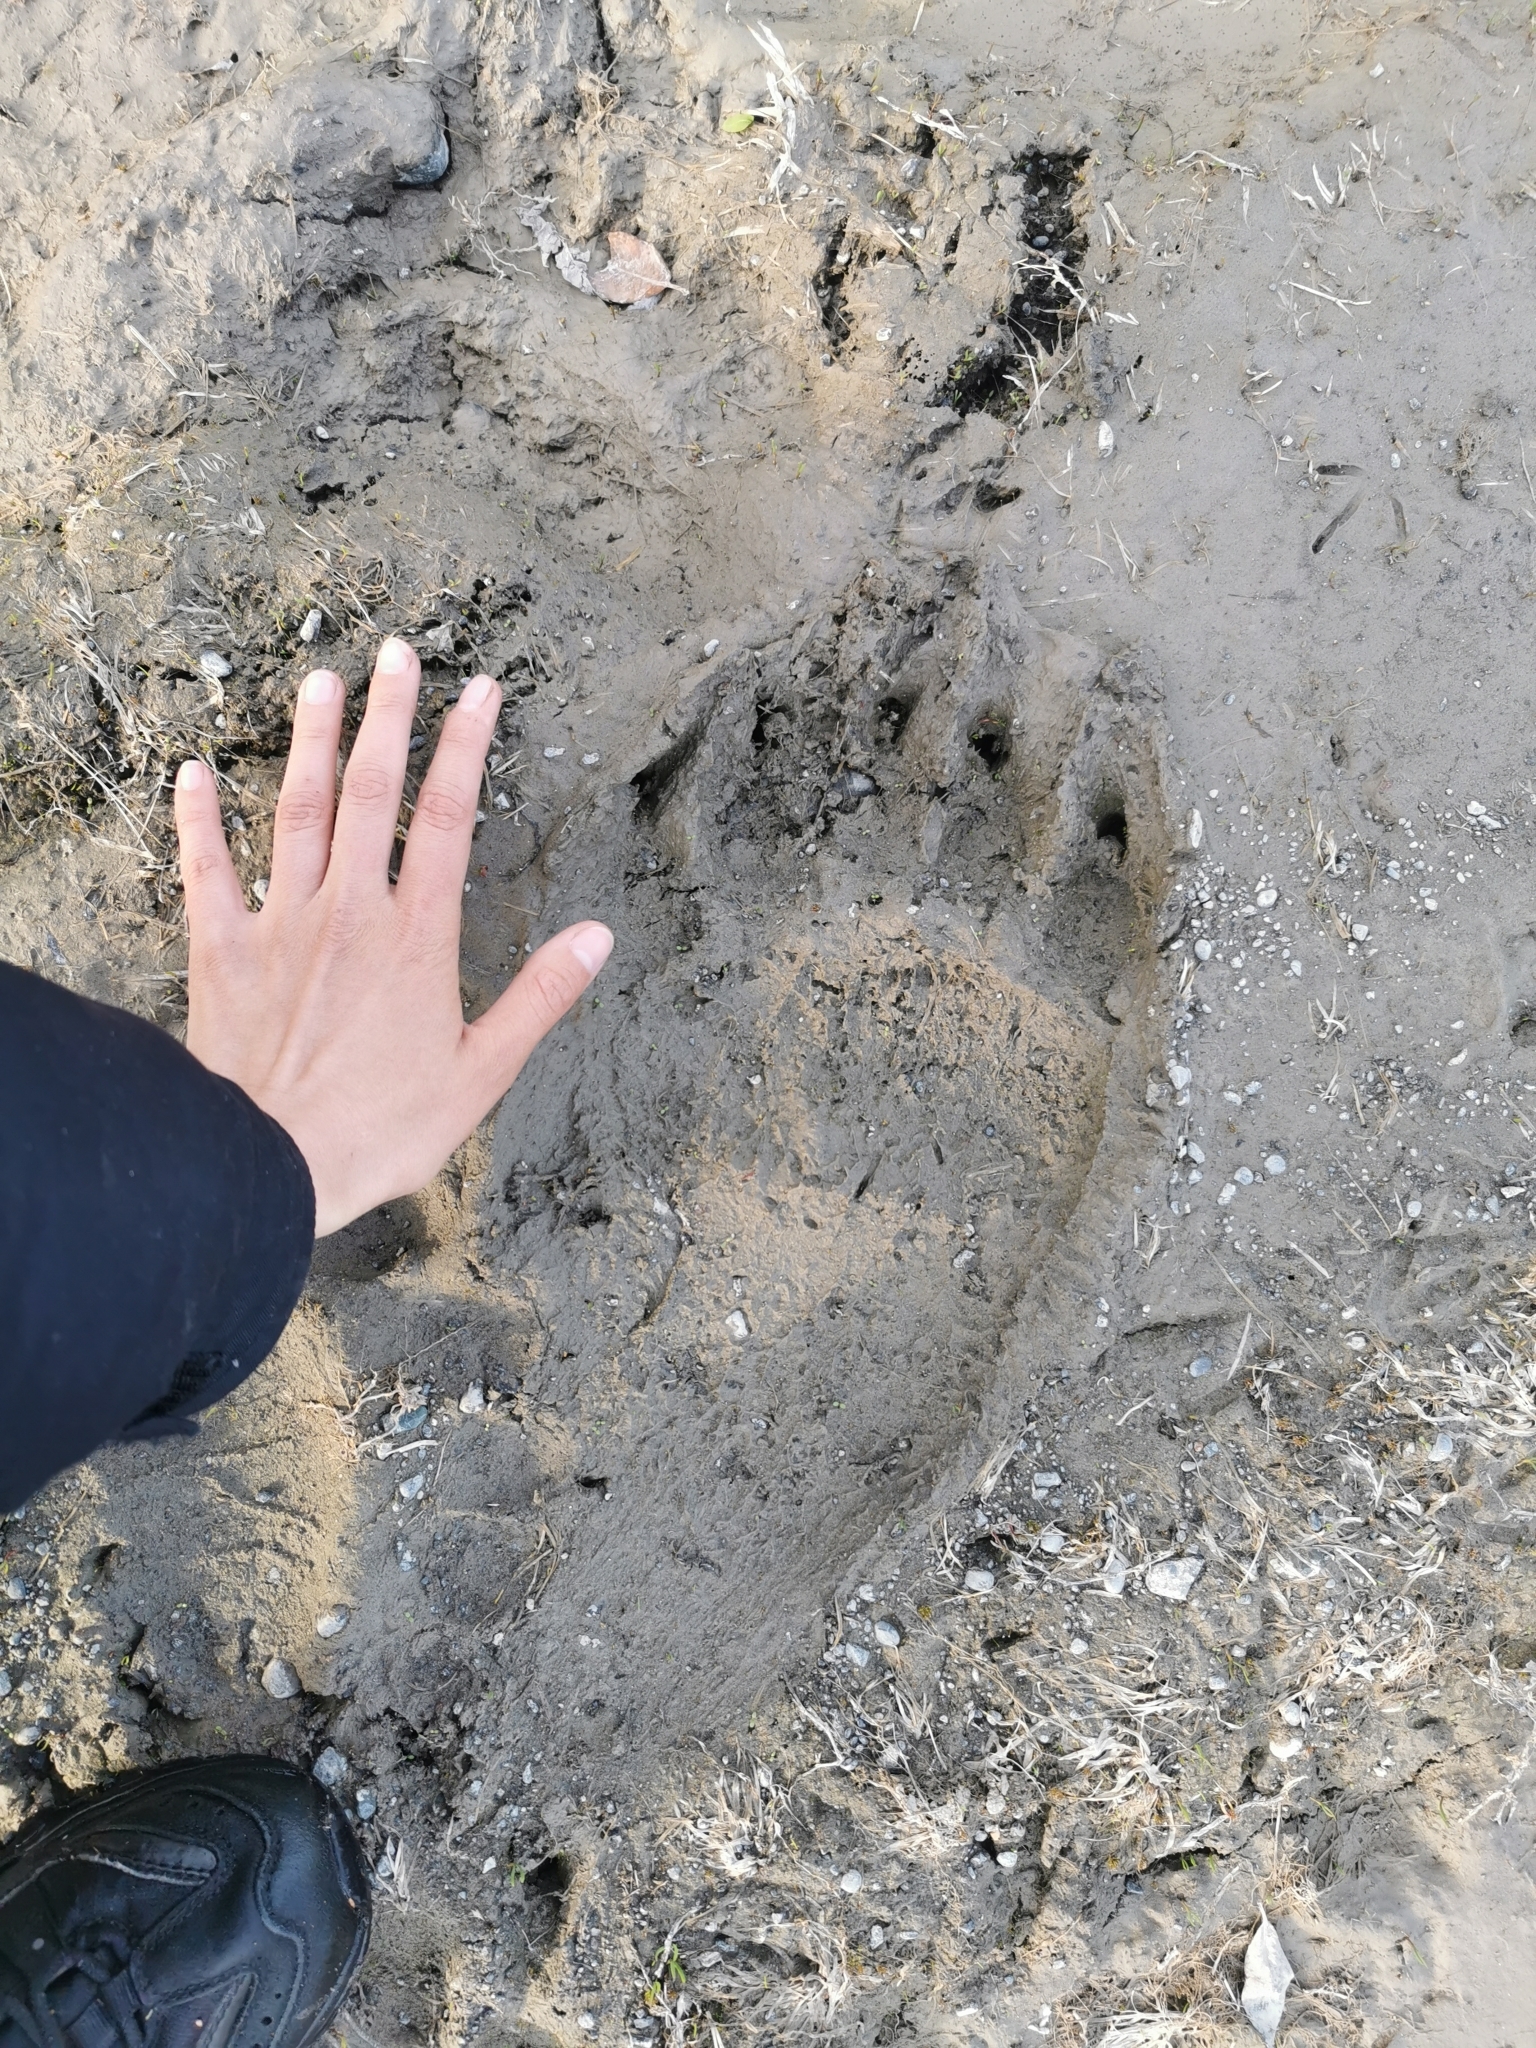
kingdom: Animalia
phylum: Chordata
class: Mammalia
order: Carnivora
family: Ursidae
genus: Ursus
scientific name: Ursus arctos
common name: Brown bear
